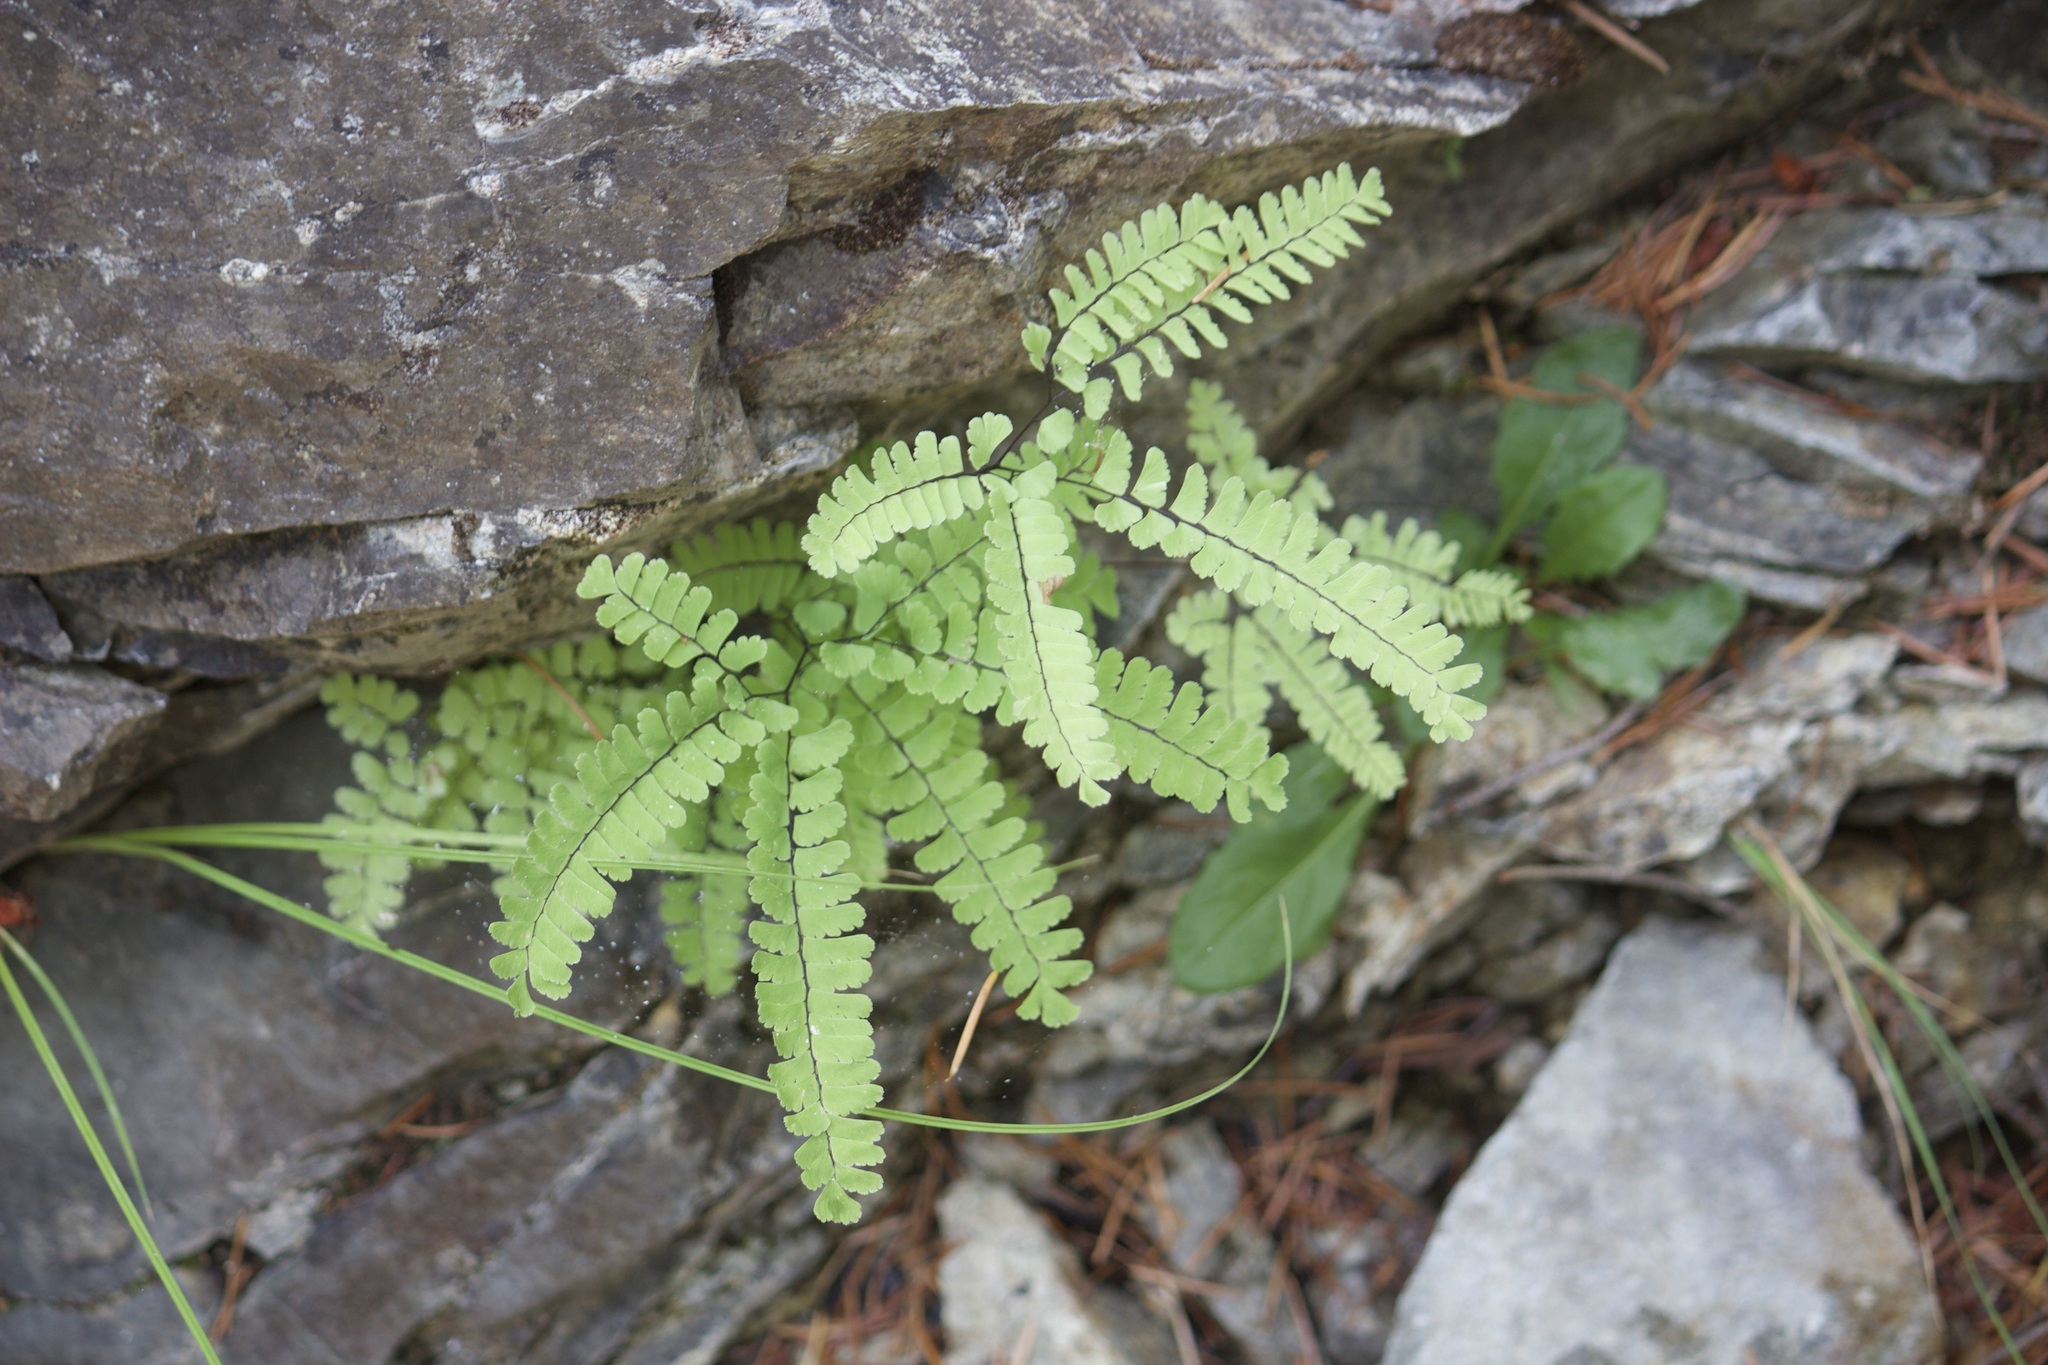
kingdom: Plantae
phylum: Tracheophyta
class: Polypodiopsida
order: Polypodiales
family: Pteridaceae
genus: Adiantum
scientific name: Adiantum aleuticum
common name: Aleutian maidenhair fern
